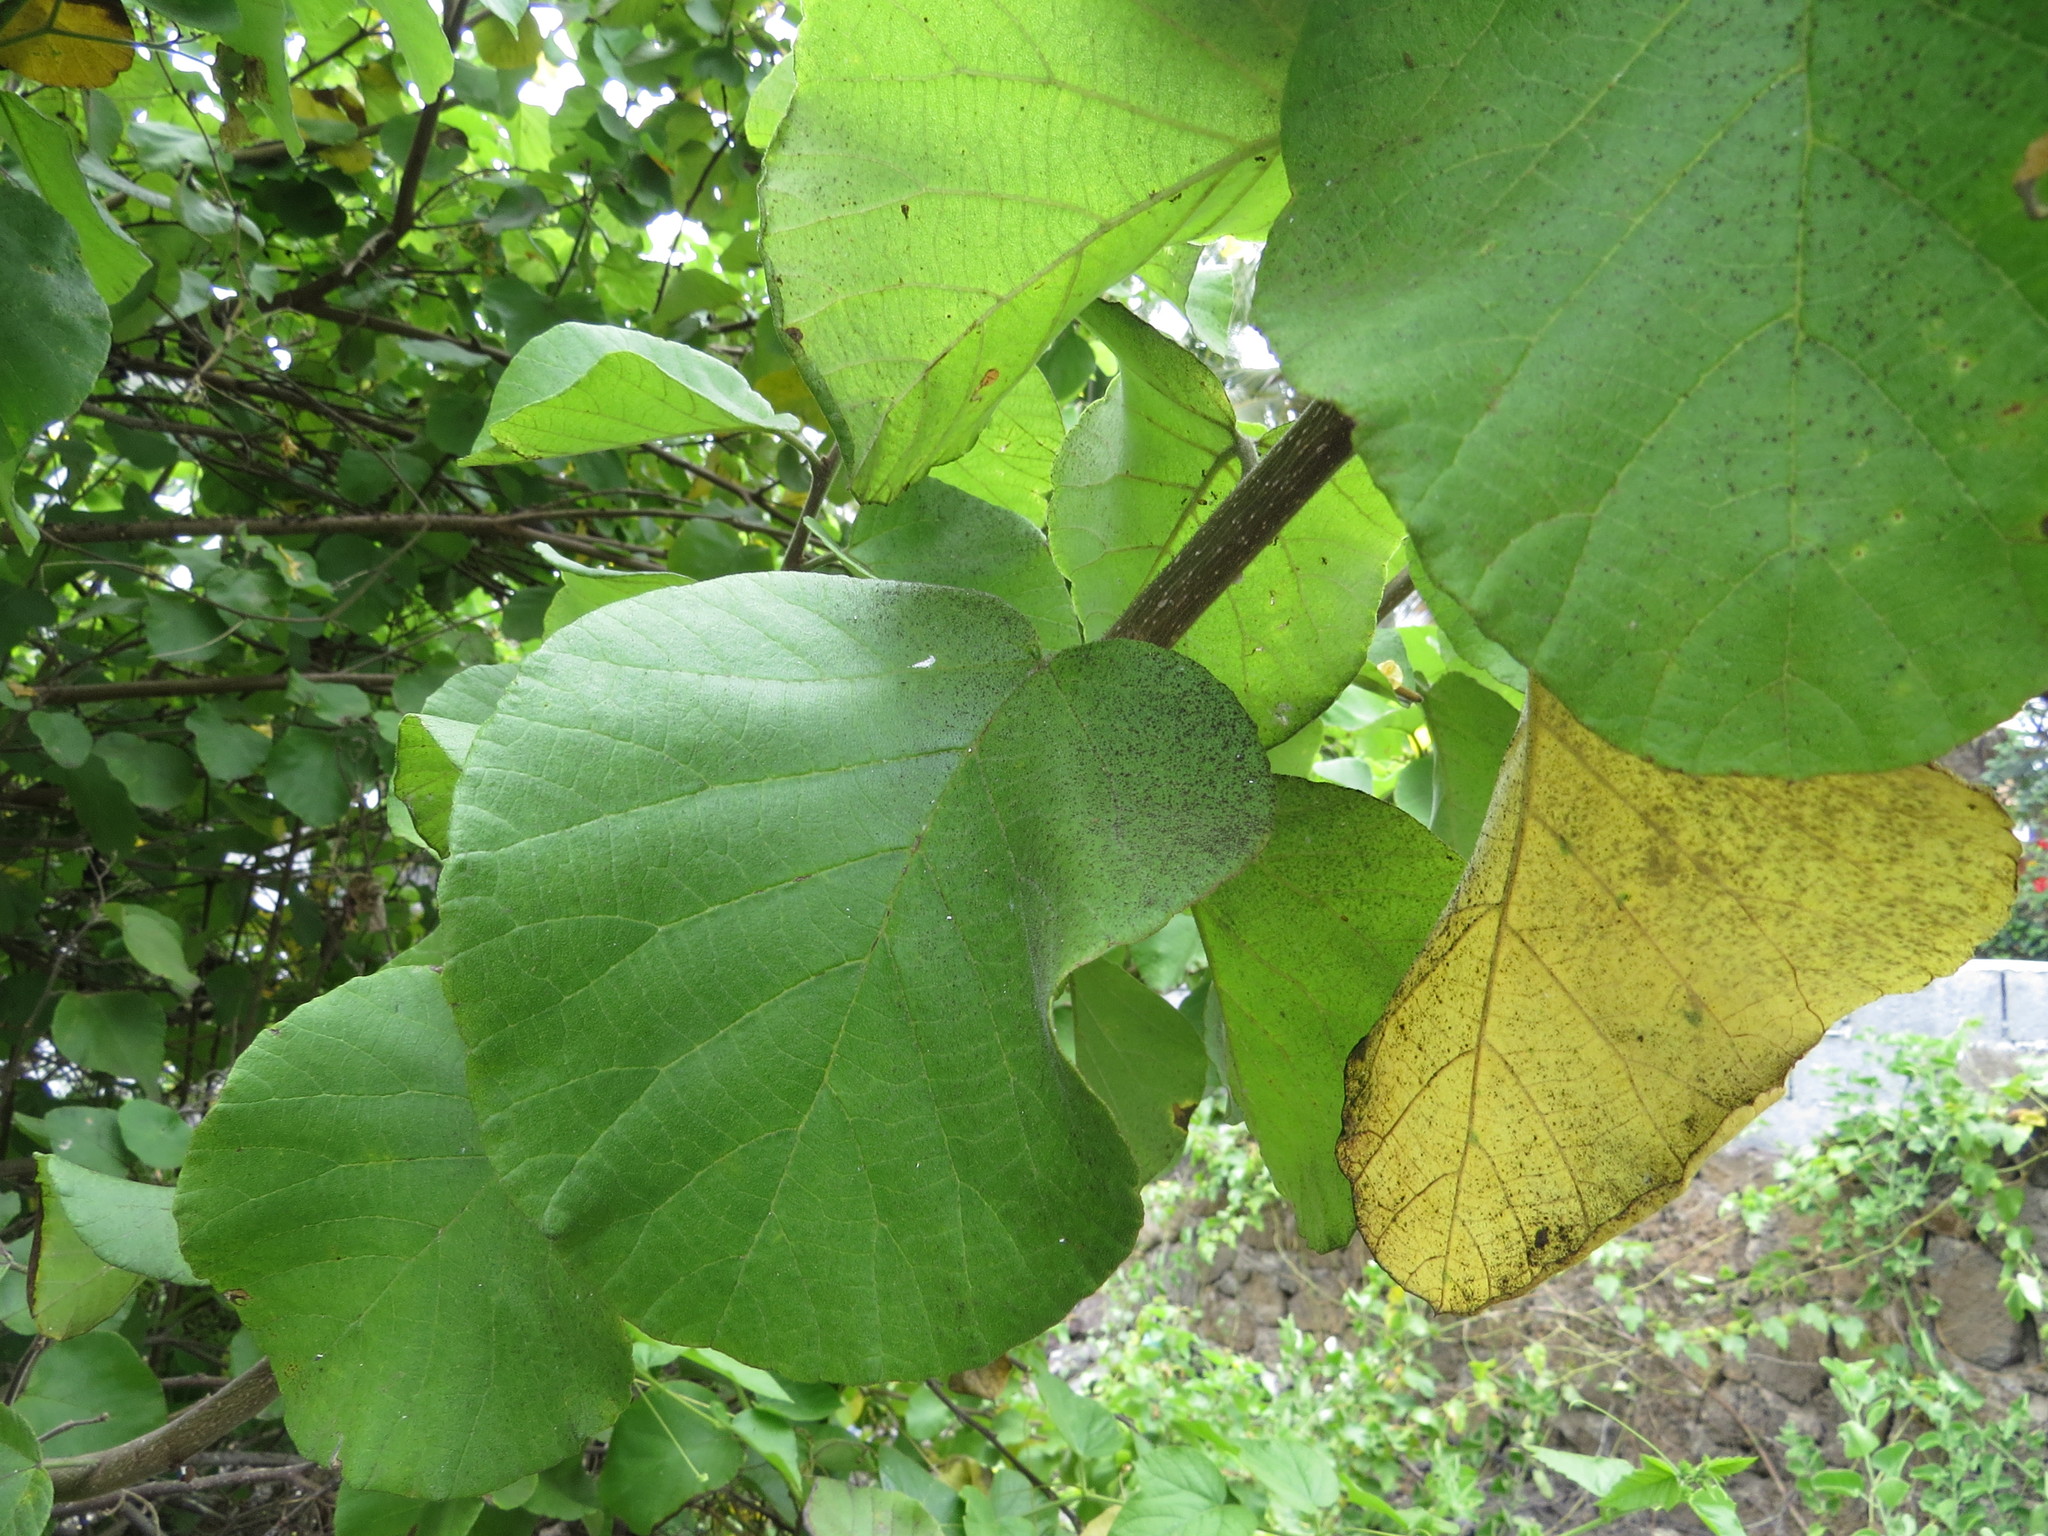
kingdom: Plantae
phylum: Tracheophyta
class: Magnoliopsida
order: Boraginales
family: Cordiaceae
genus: Cordia
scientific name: Cordia lutea
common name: Yellow geiger
